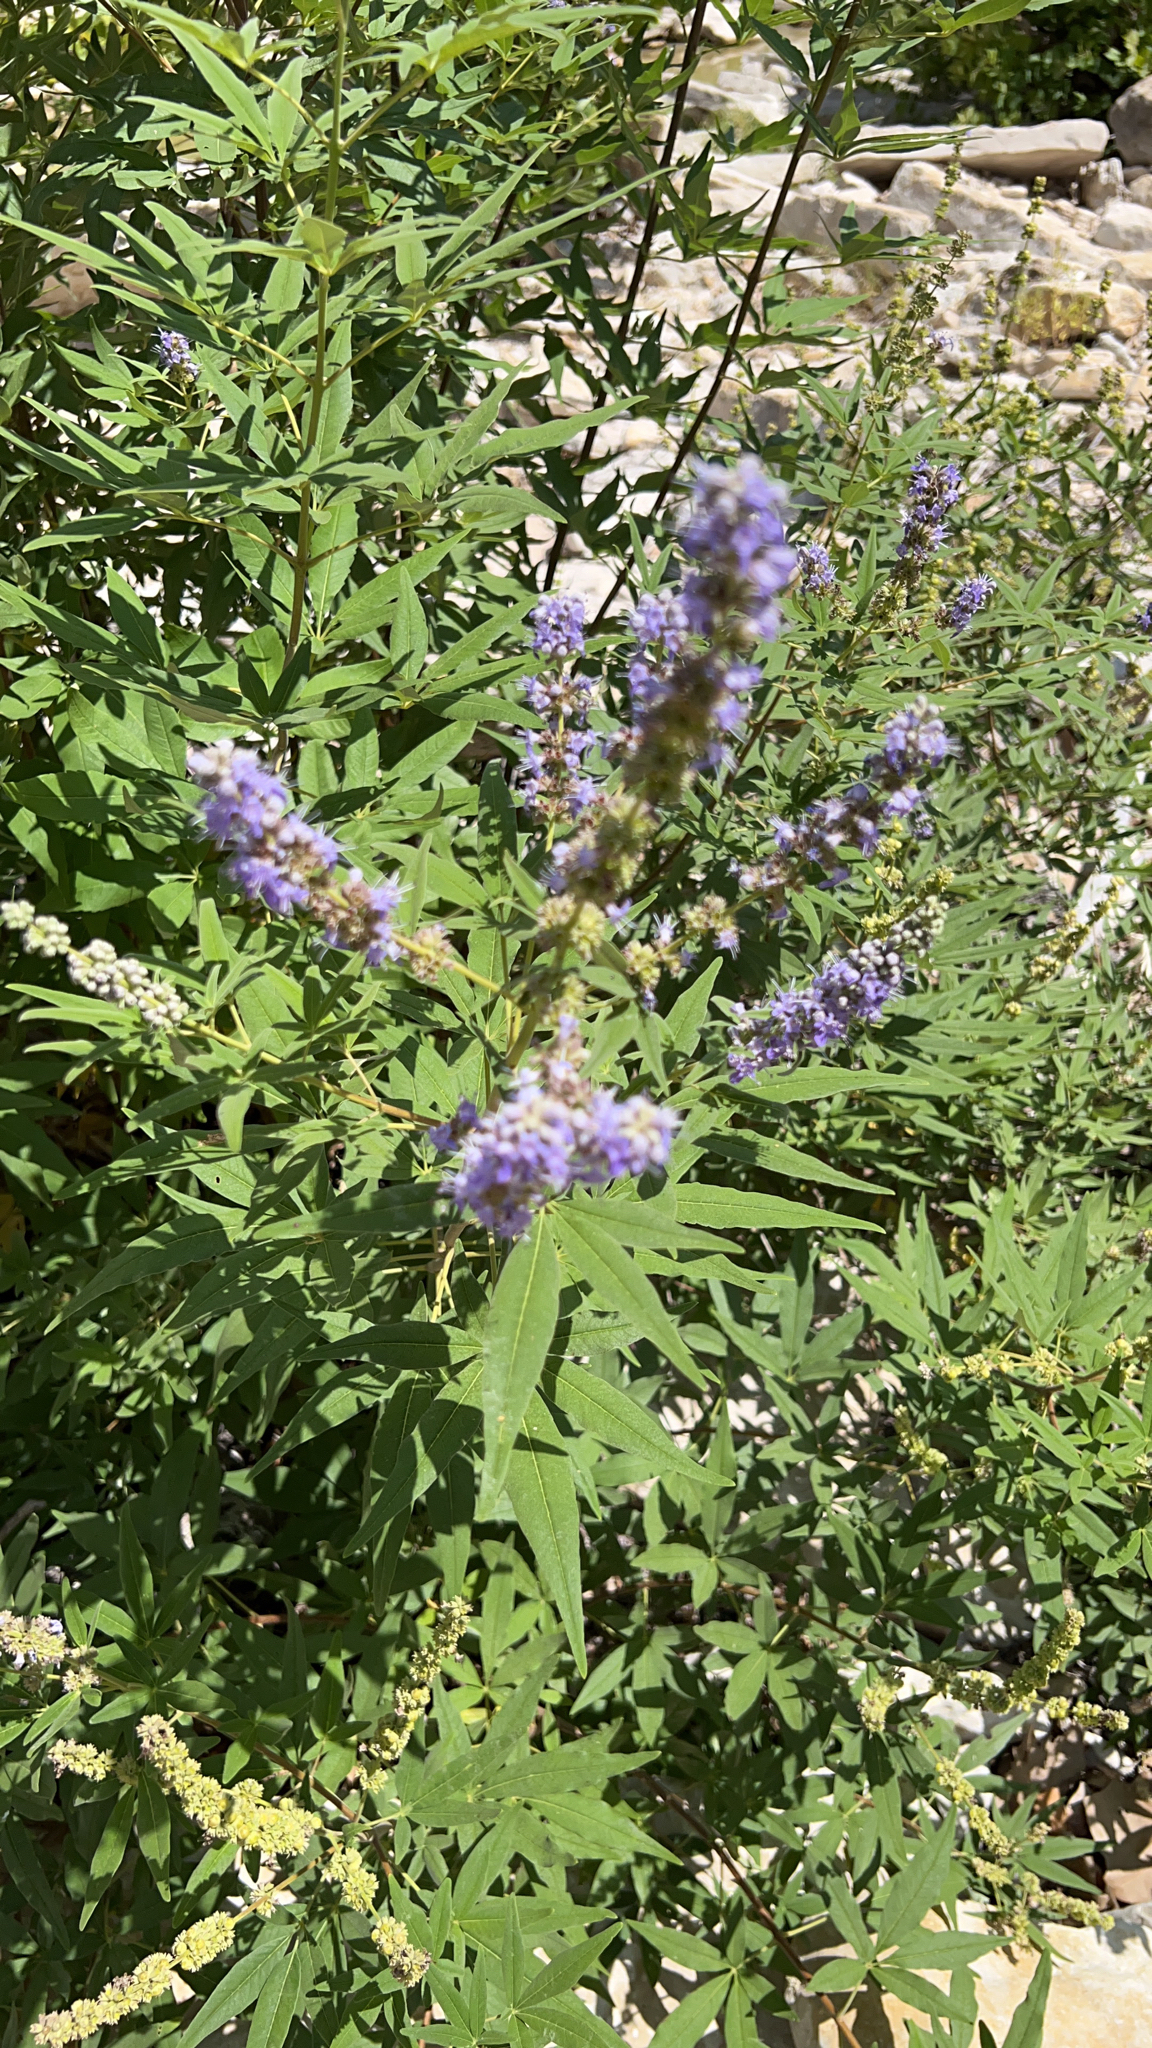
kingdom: Plantae
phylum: Tracheophyta
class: Magnoliopsida
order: Lamiales
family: Lamiaceae
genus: Vitex
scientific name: Vitex agnus-castus
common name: Chasteberry
